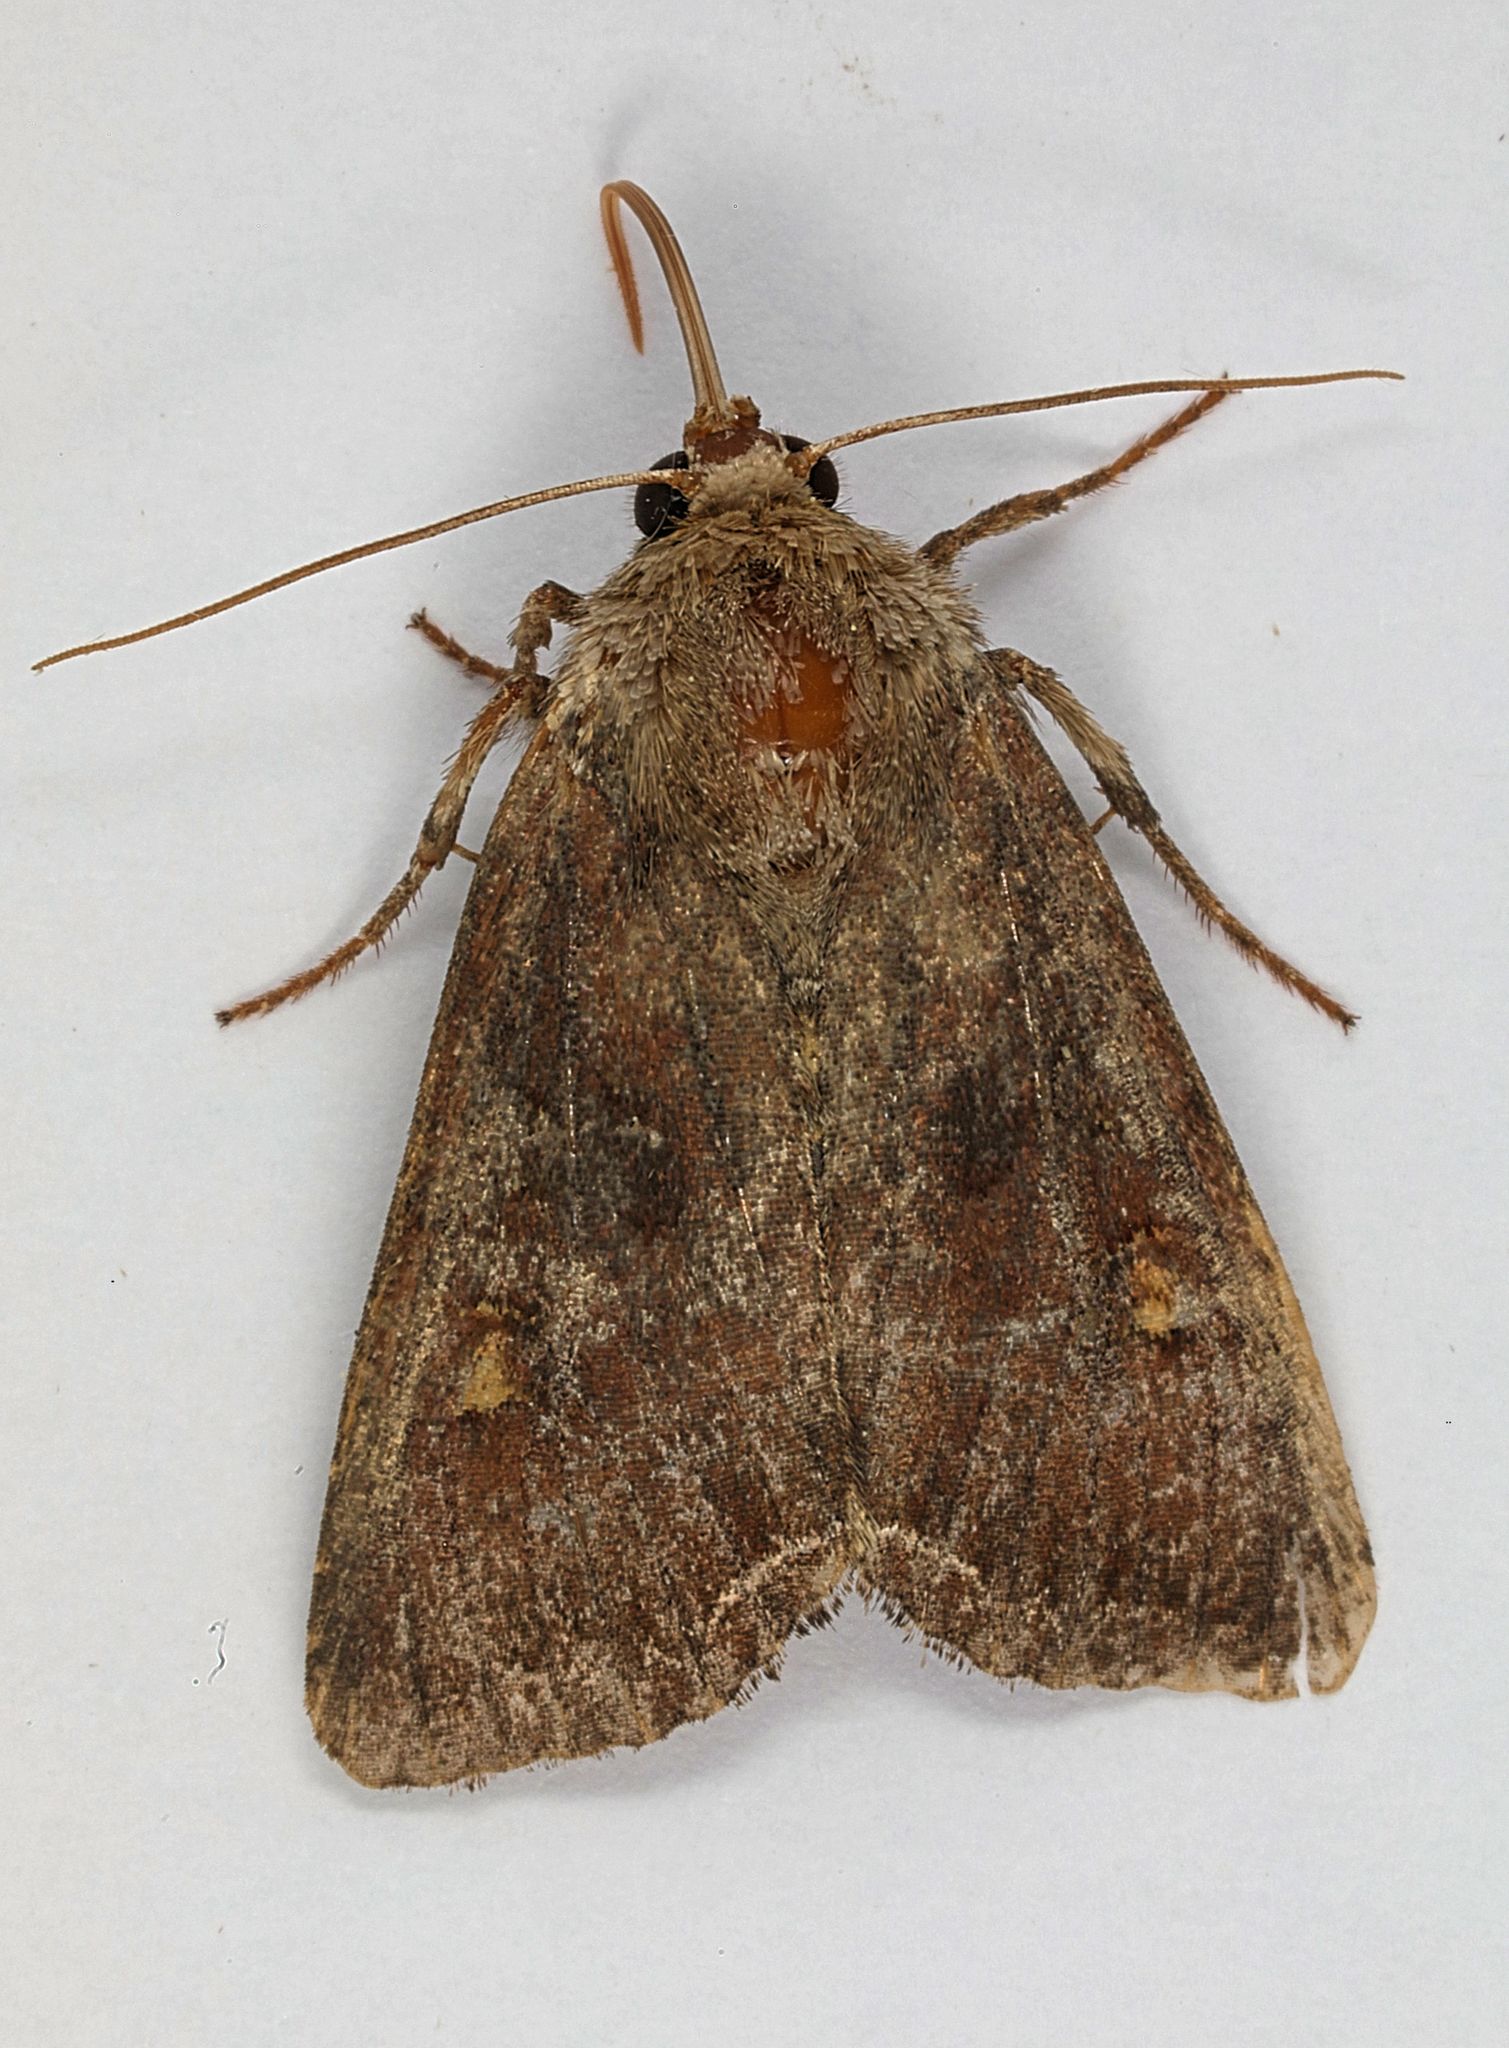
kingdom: Animalia
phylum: Arthropoda
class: Insecta
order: Lepidoptera
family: Noctuidae
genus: Lacanobia
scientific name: Lacanobia oleracea
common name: Bright-line brown-eye
